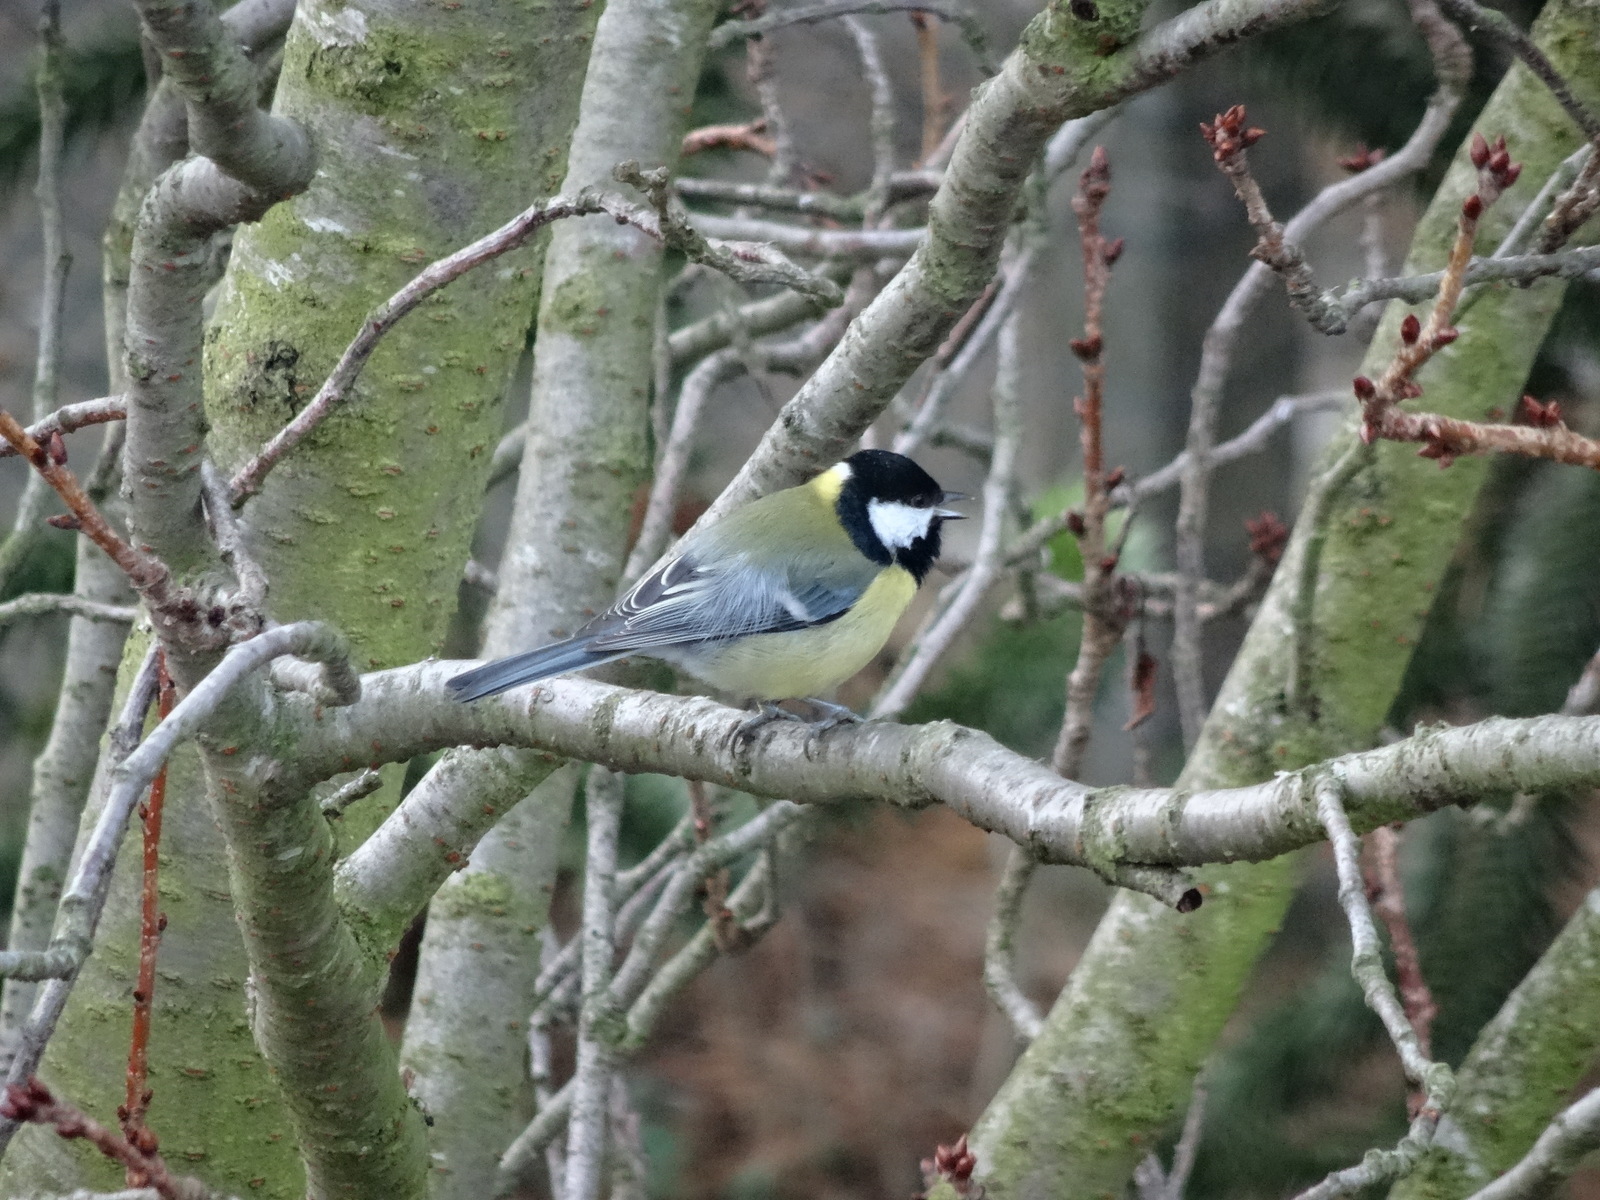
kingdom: Animalia
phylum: Chordata
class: Aves
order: Passeriformes
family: Paridae
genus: Parus
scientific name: Parus major
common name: Great tit
